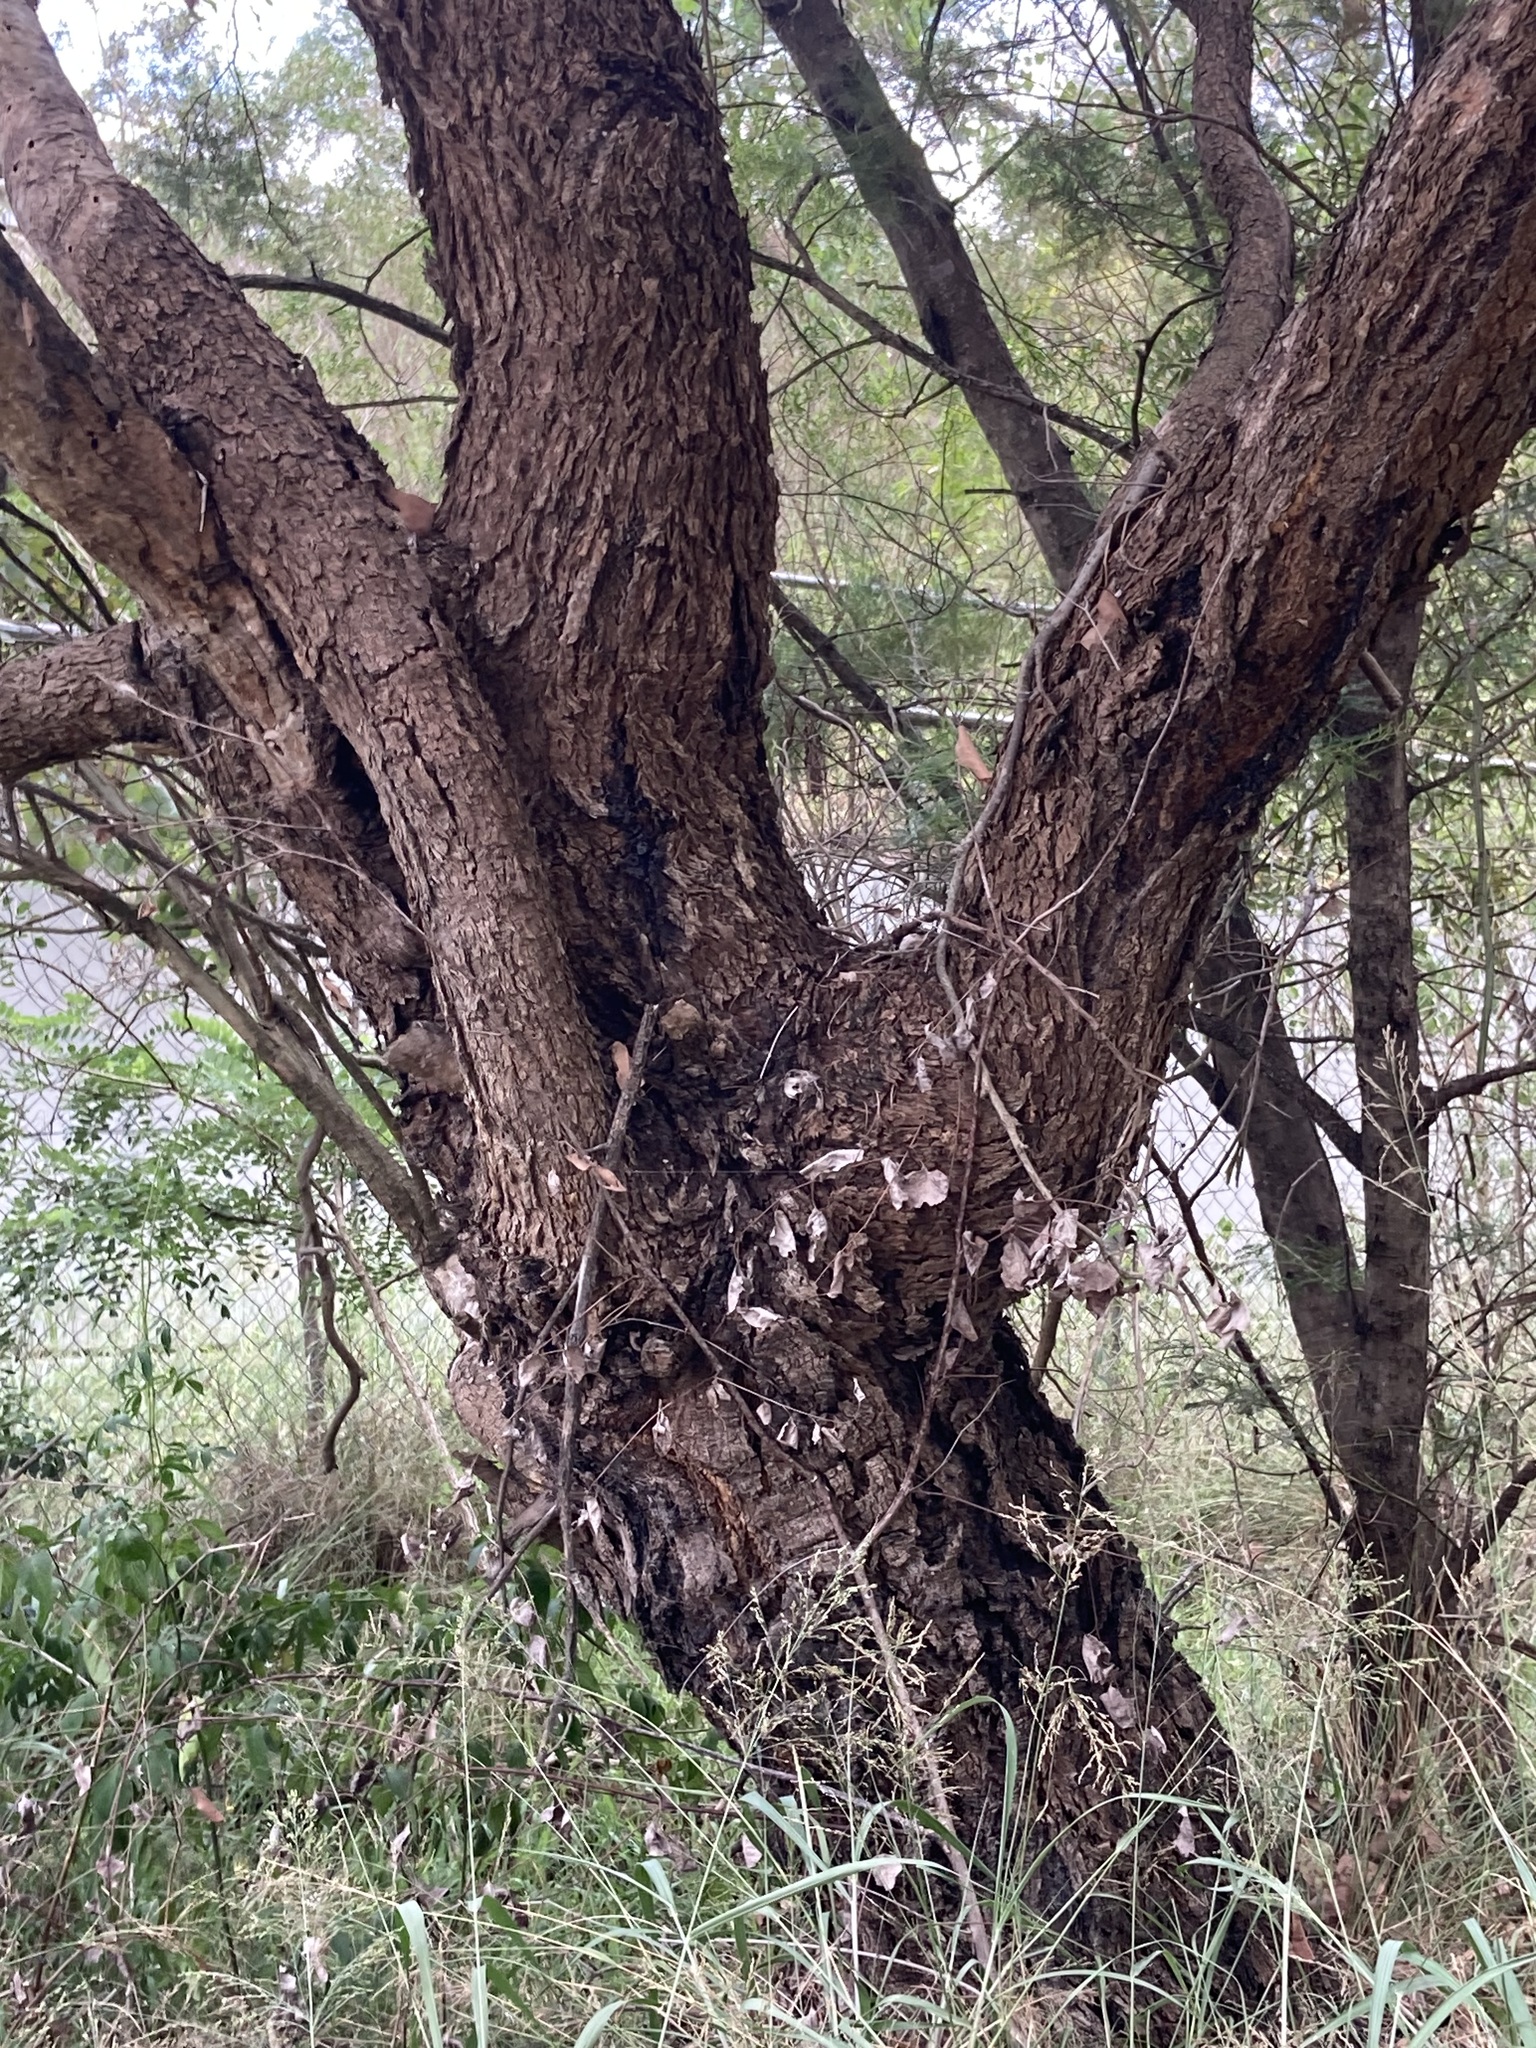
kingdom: Plantae
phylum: Tracheophyta
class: Magnoliopsida
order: Myrtales
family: Myrtaceae
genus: Eucalyptus
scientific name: Eucalyptus baueriana
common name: Round-leaf-box
